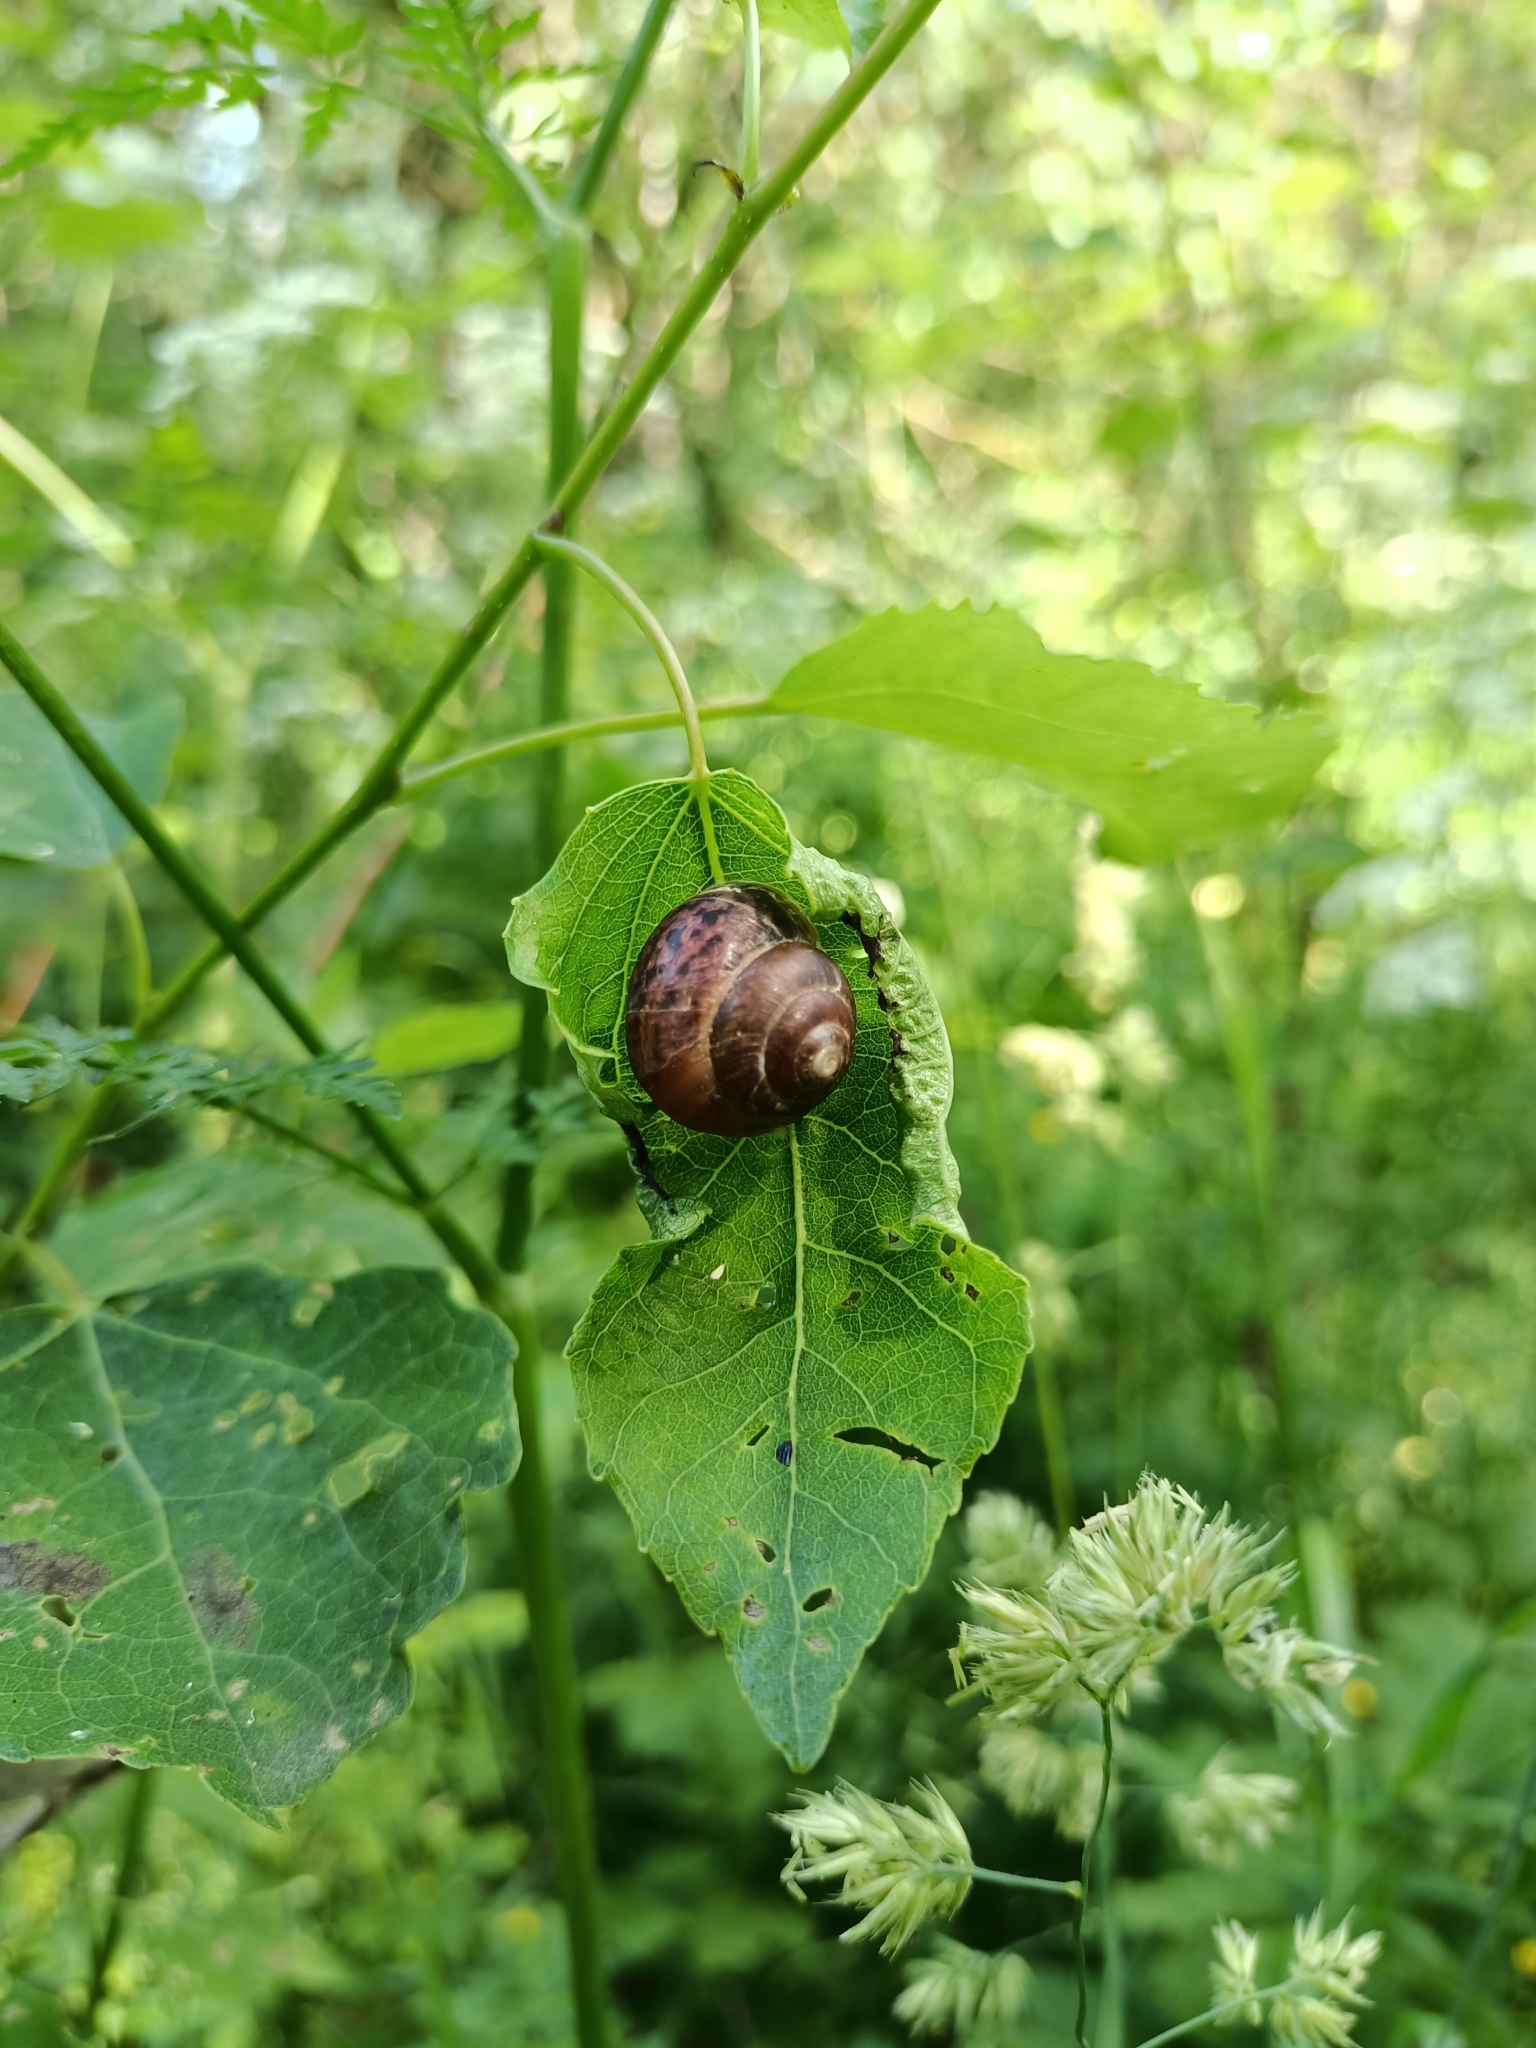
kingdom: Animalia
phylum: Mollusca
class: Gastropoda
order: Stylommatophora
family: Camaenidae
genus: Fruticicola
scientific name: Fruticicola fruticum
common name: Bush snail
